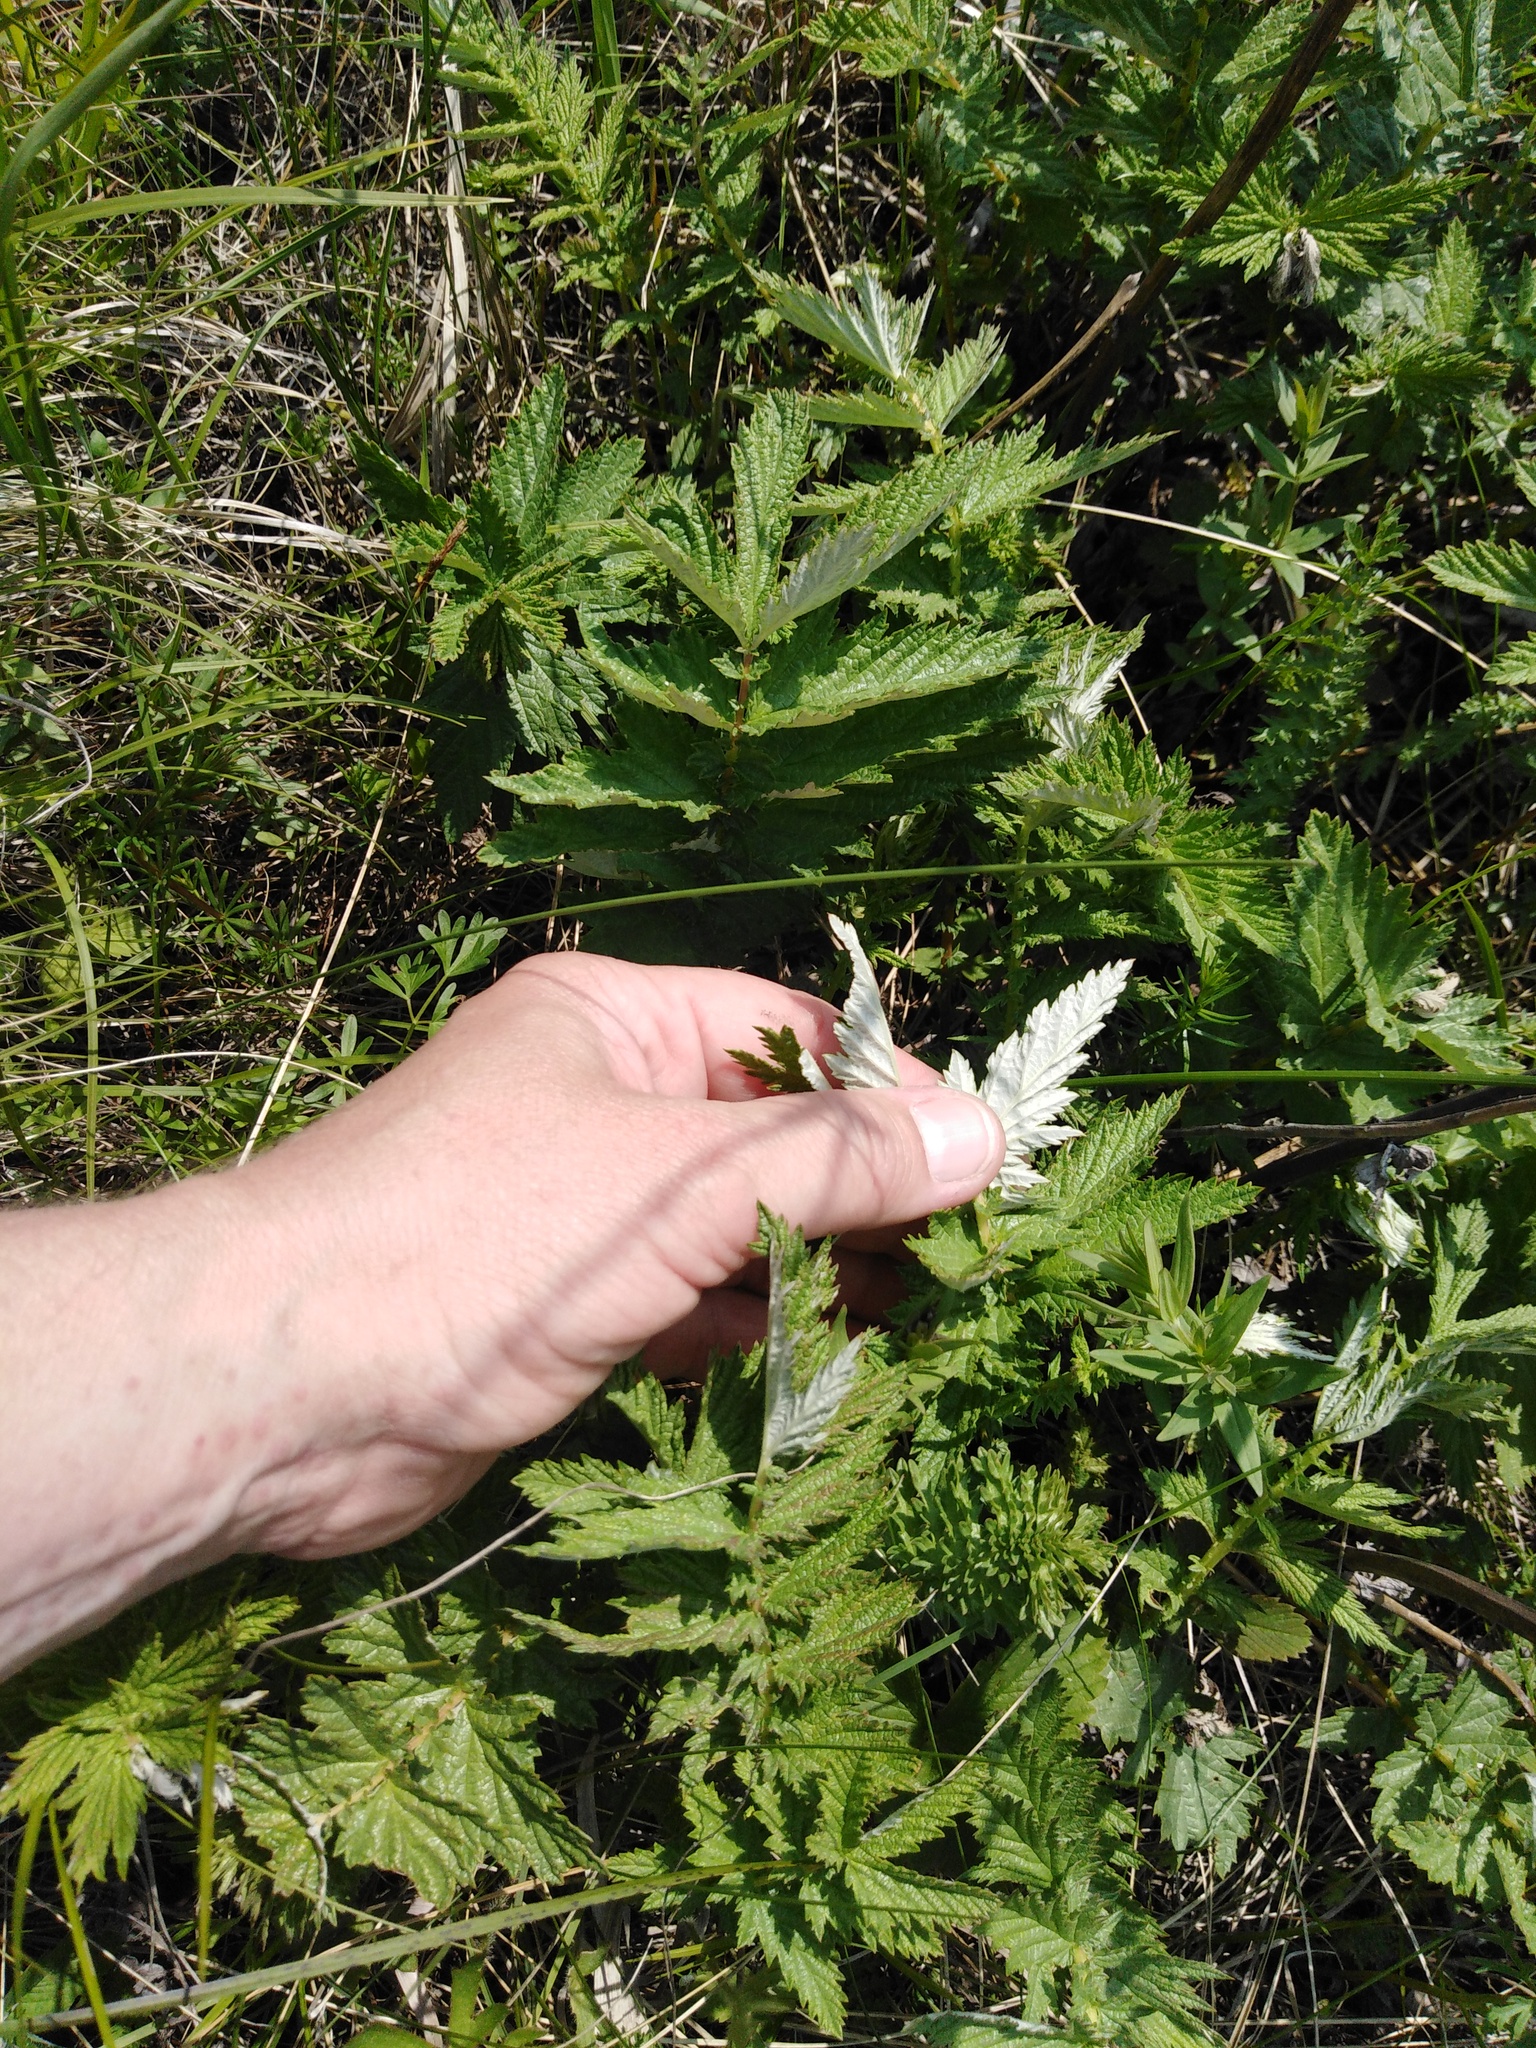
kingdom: Plantae
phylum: Tracheophyta
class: Magnoliopsida
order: Rosales
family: Rosaceae
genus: Filipendula
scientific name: Filipendula ulmaria
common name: Meadowsweet
